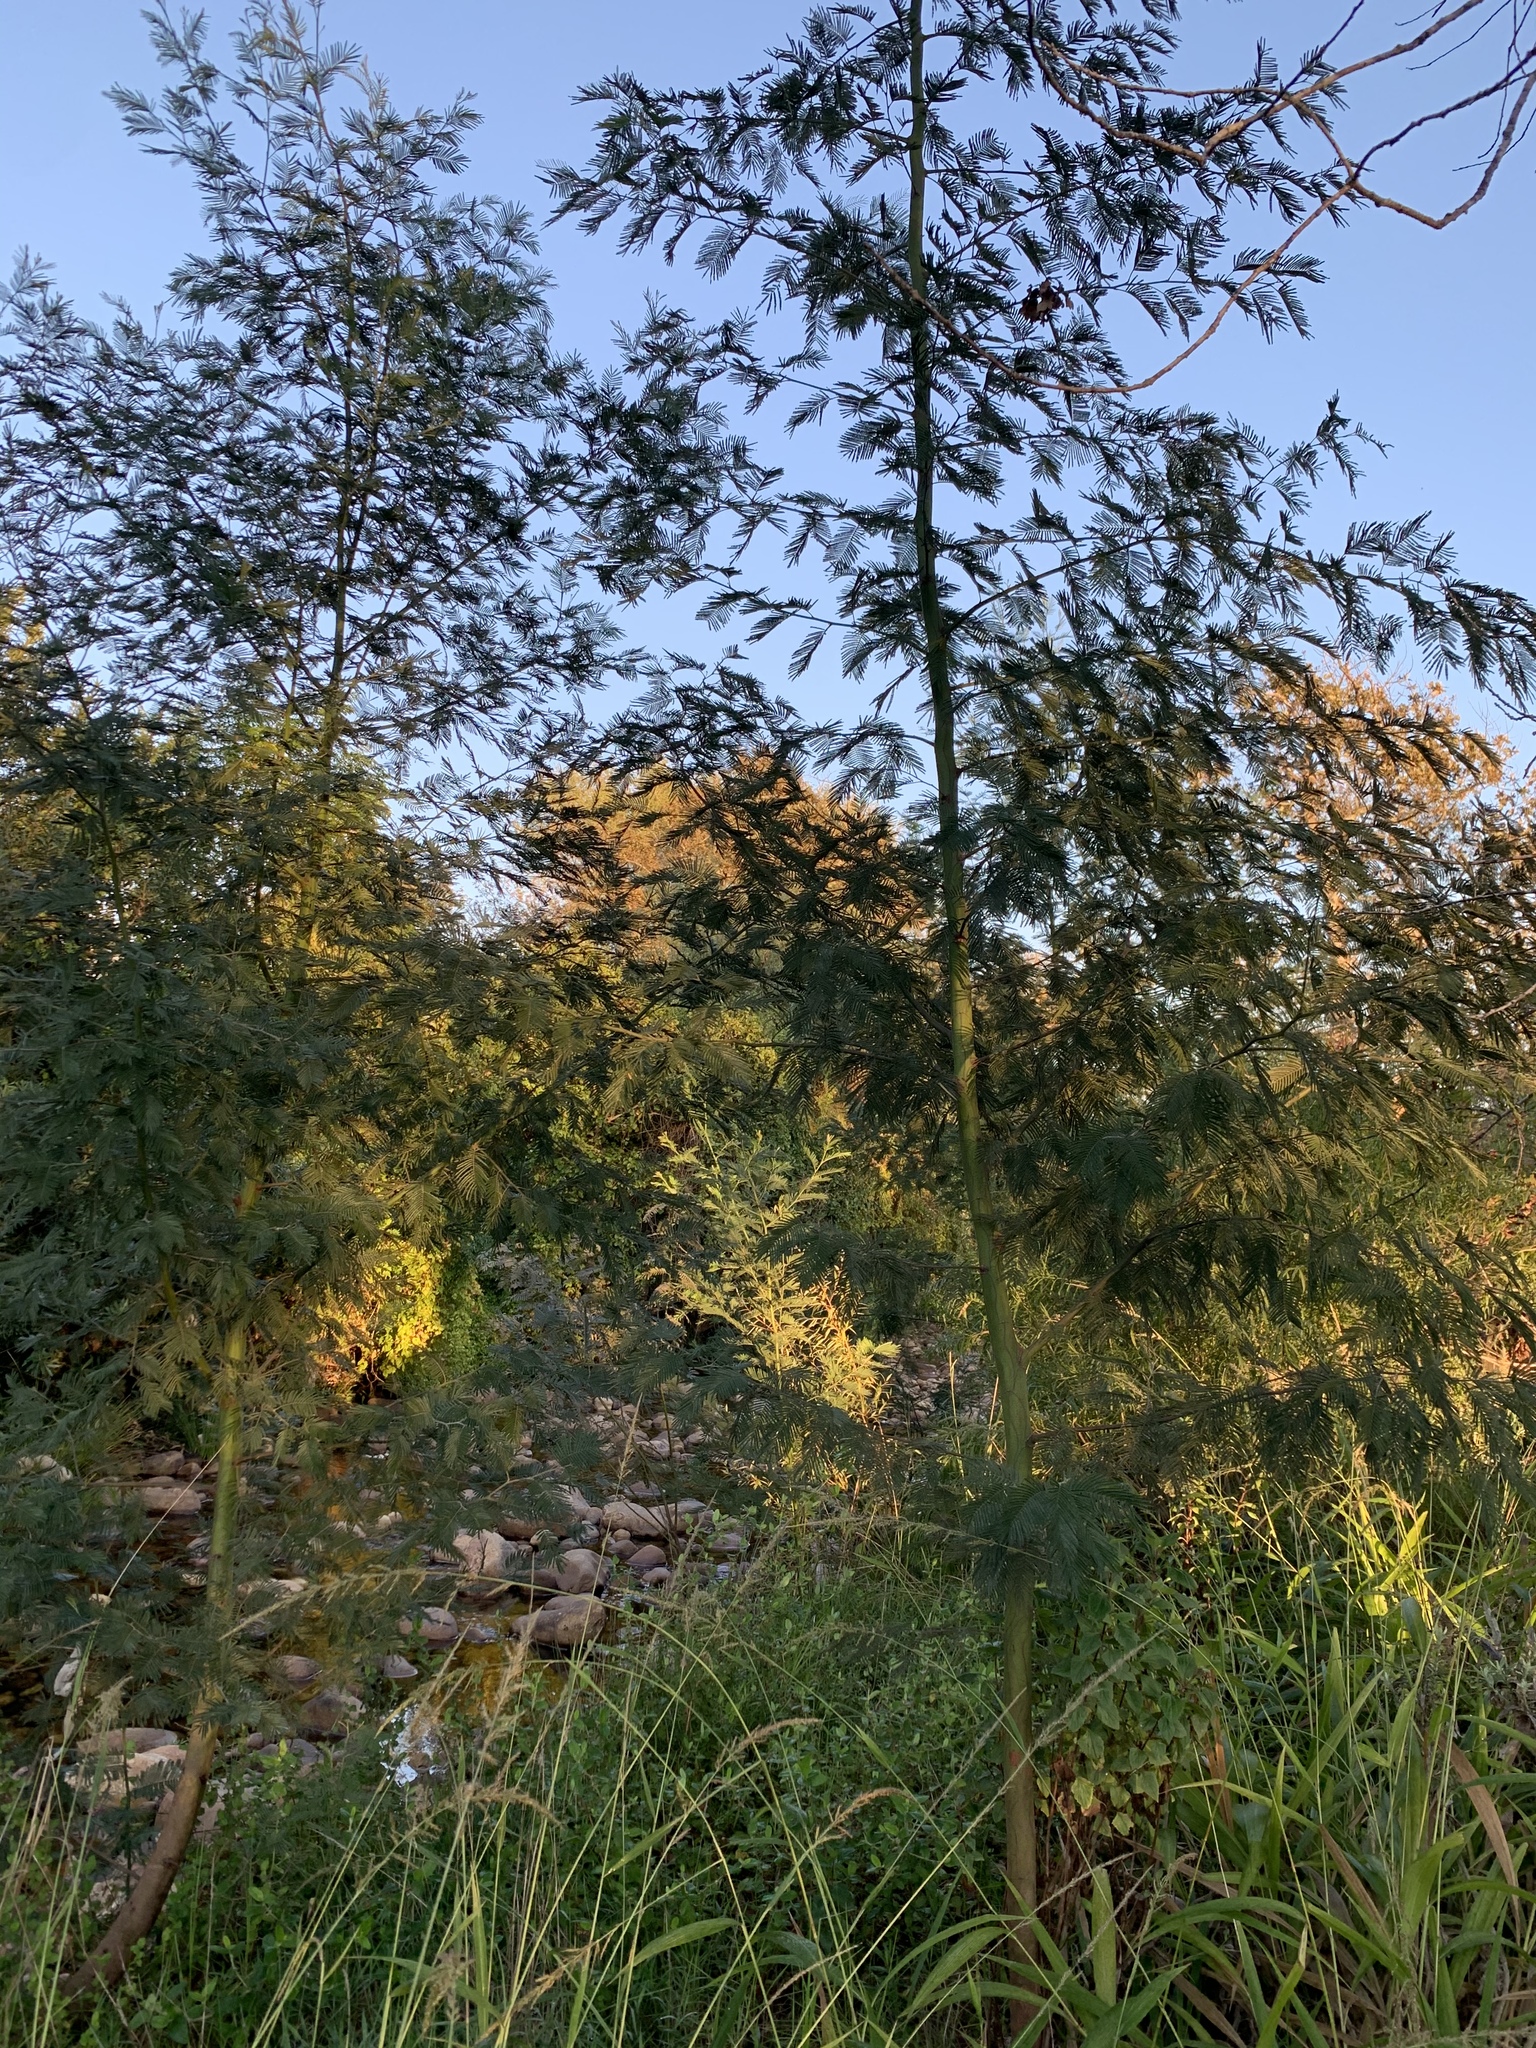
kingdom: Plantae
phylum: Tracheophyta
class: Magnoliopsida
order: Fabales
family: Fabaceae
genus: Acacia
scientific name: Acacia mearnsii
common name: Black wattle
